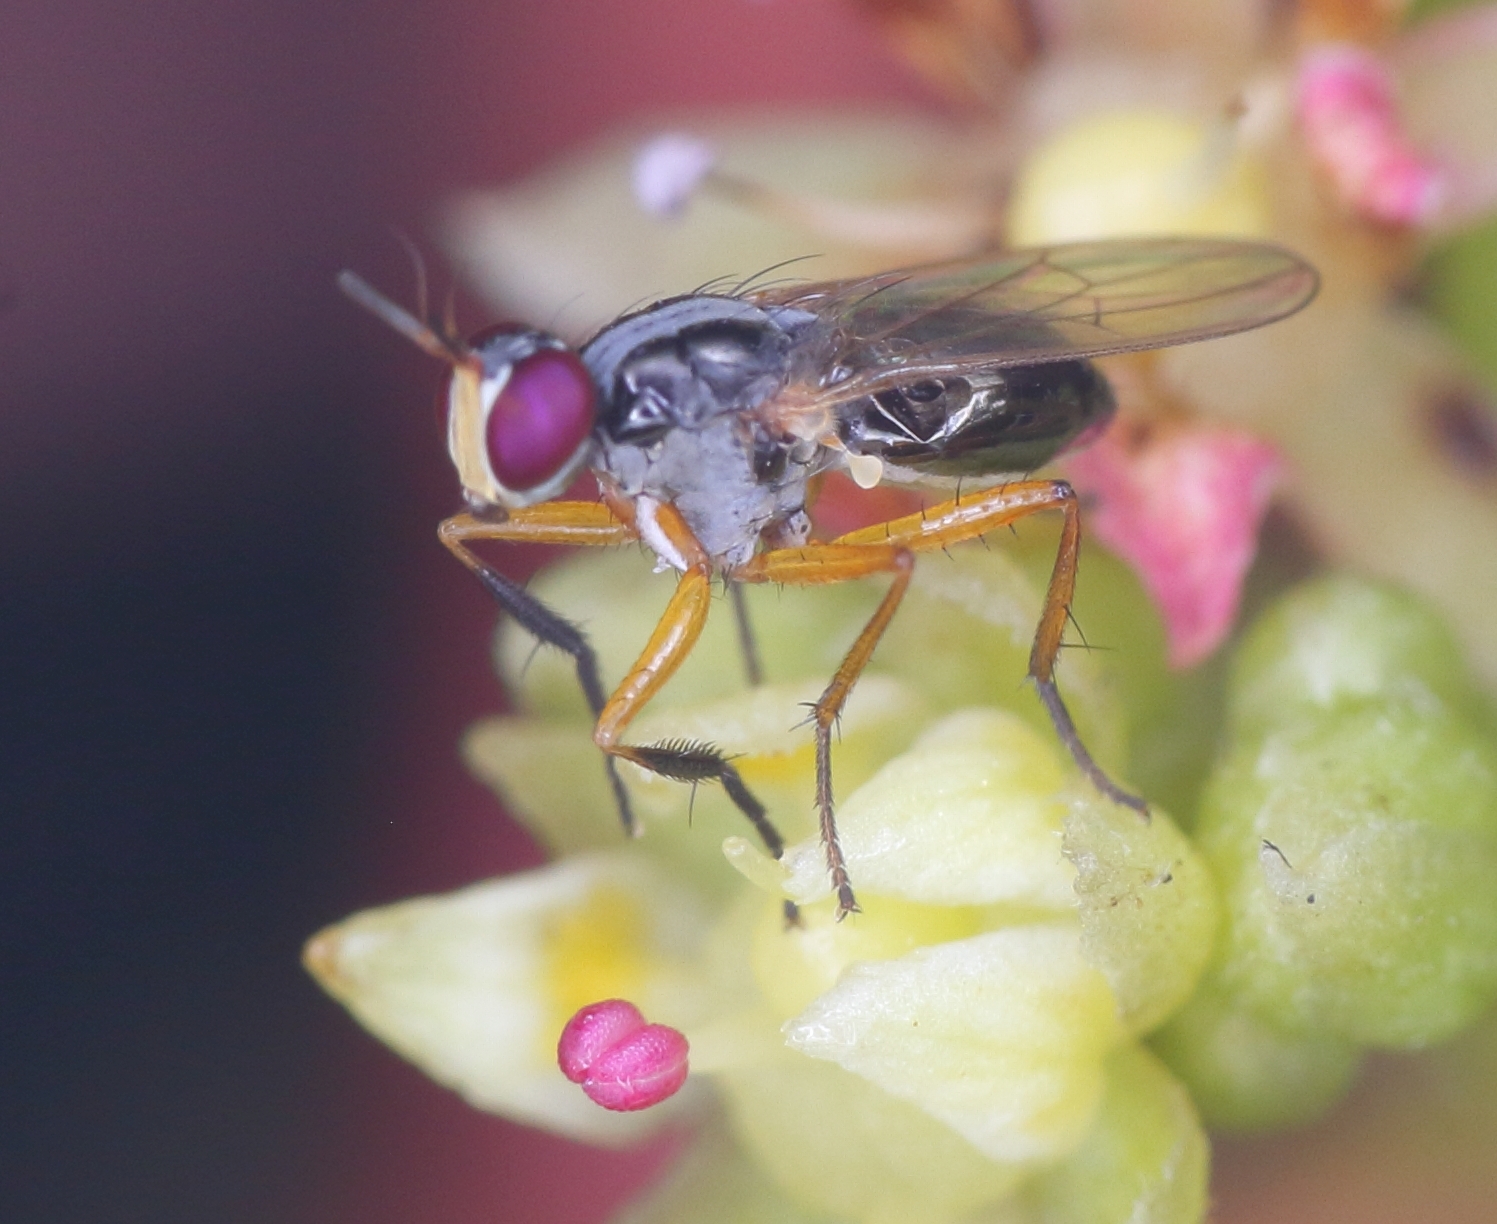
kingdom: Animalia
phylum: Arthropoda
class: Insecta
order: Diptera
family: Muscidae
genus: Anaphalantus
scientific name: Anaphalantus longicornis
